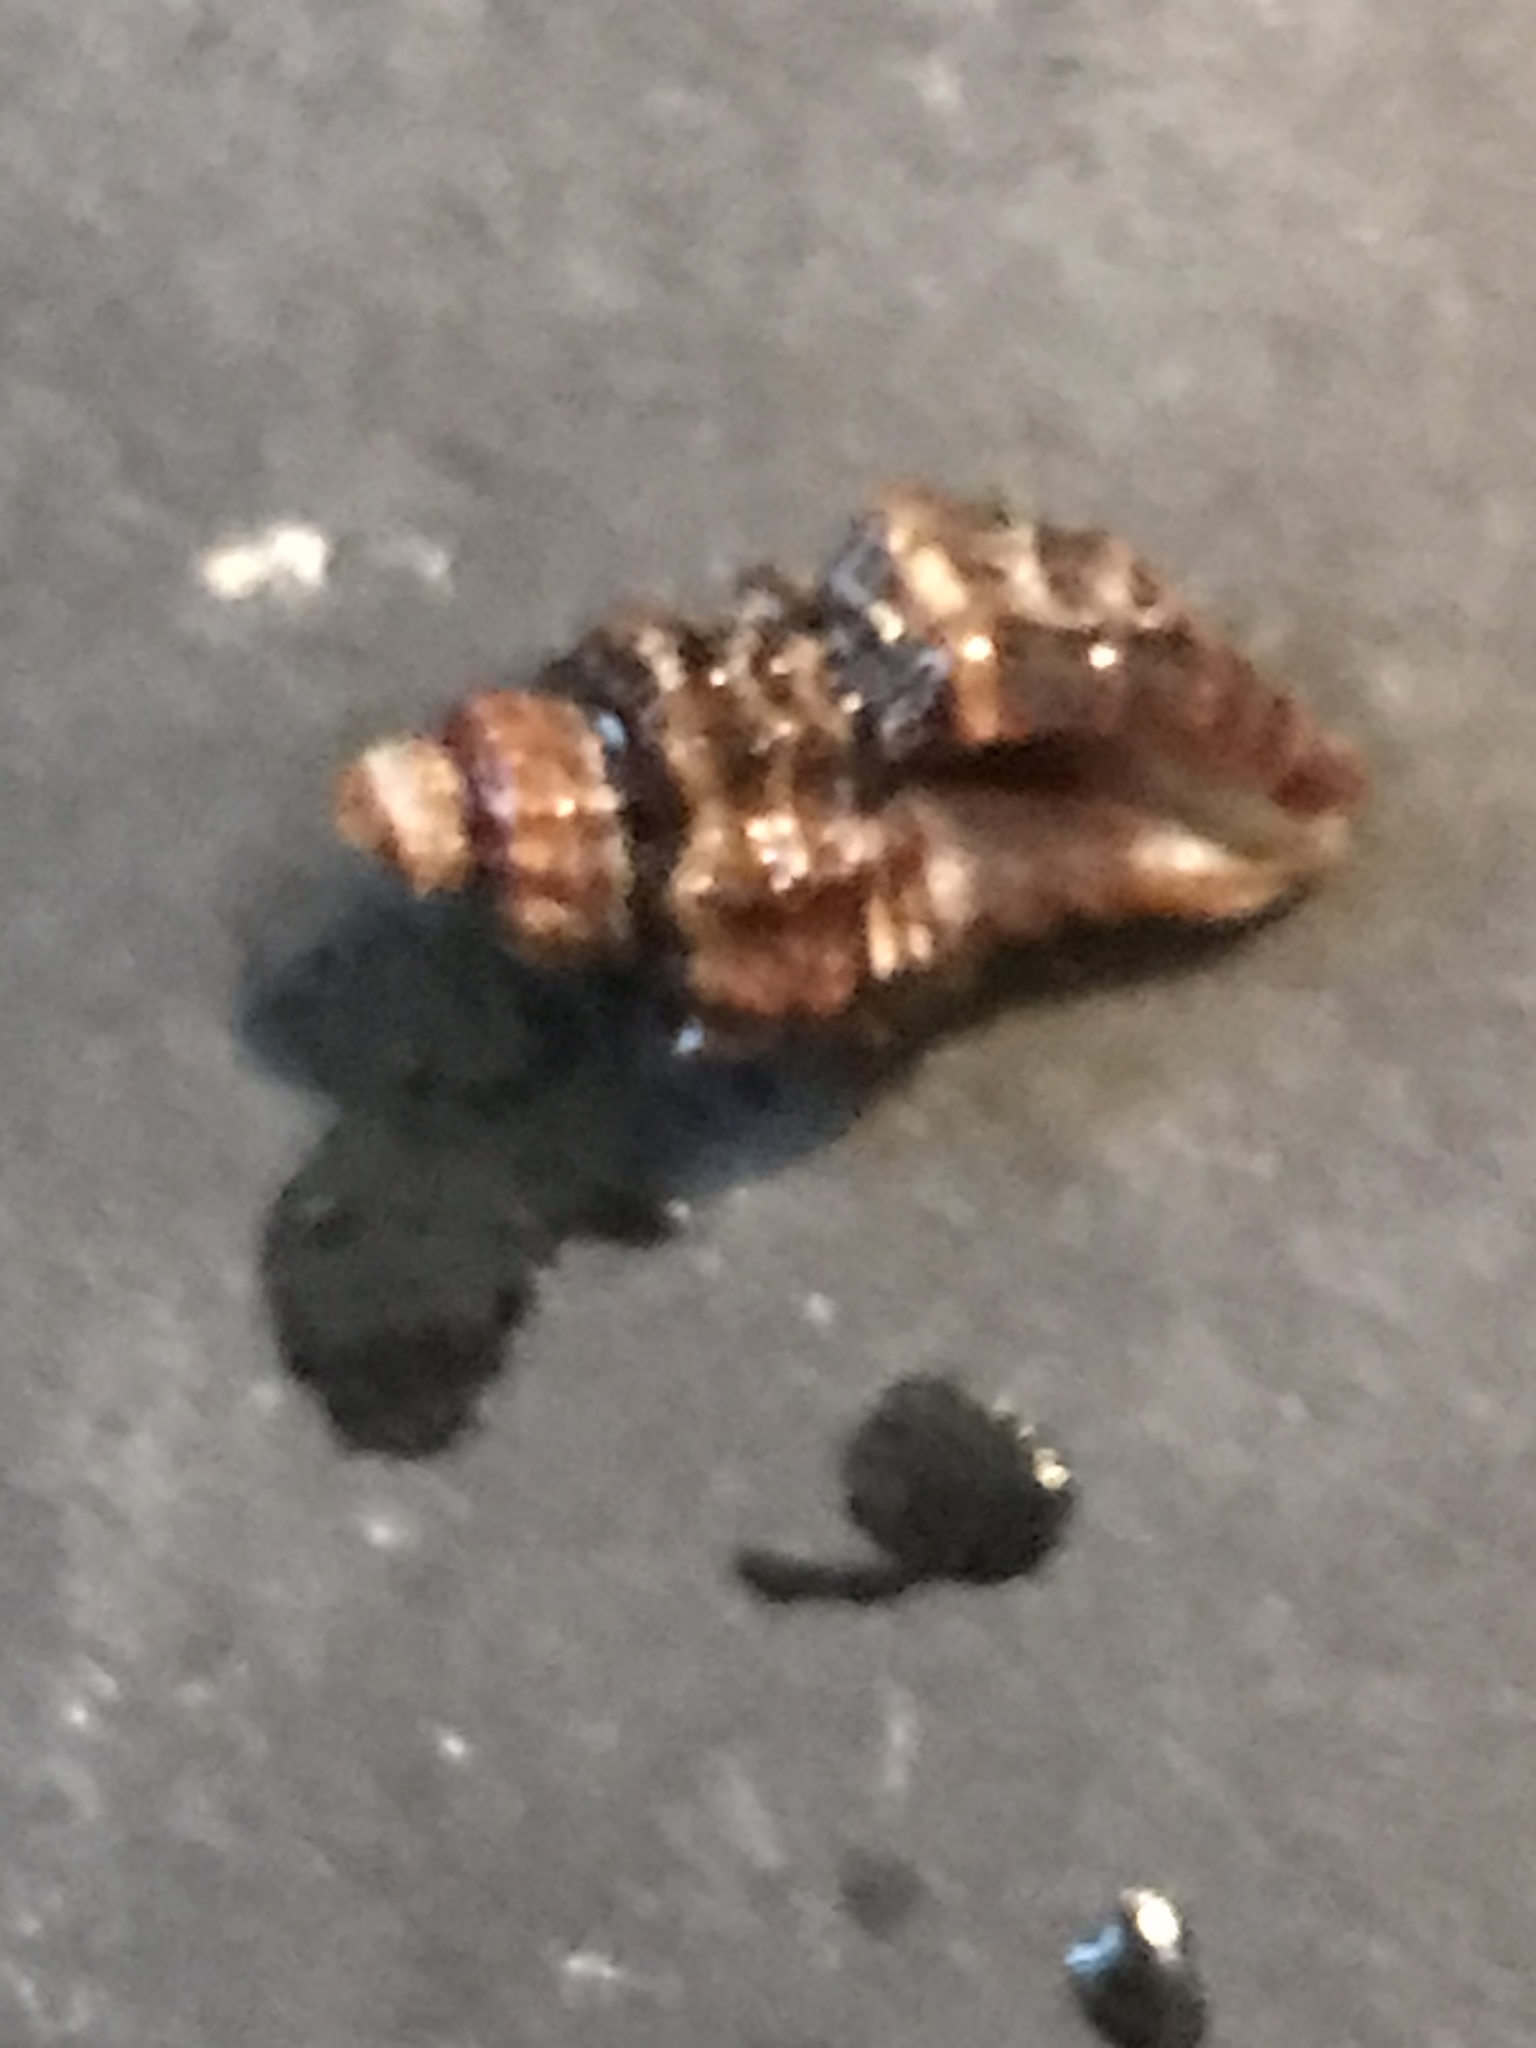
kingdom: Animalia
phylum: Mollusca
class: Gastropoda
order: Neogastropoda
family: Muricidae
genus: Paciocinebrina
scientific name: Paciocinebrina atropurpurea
